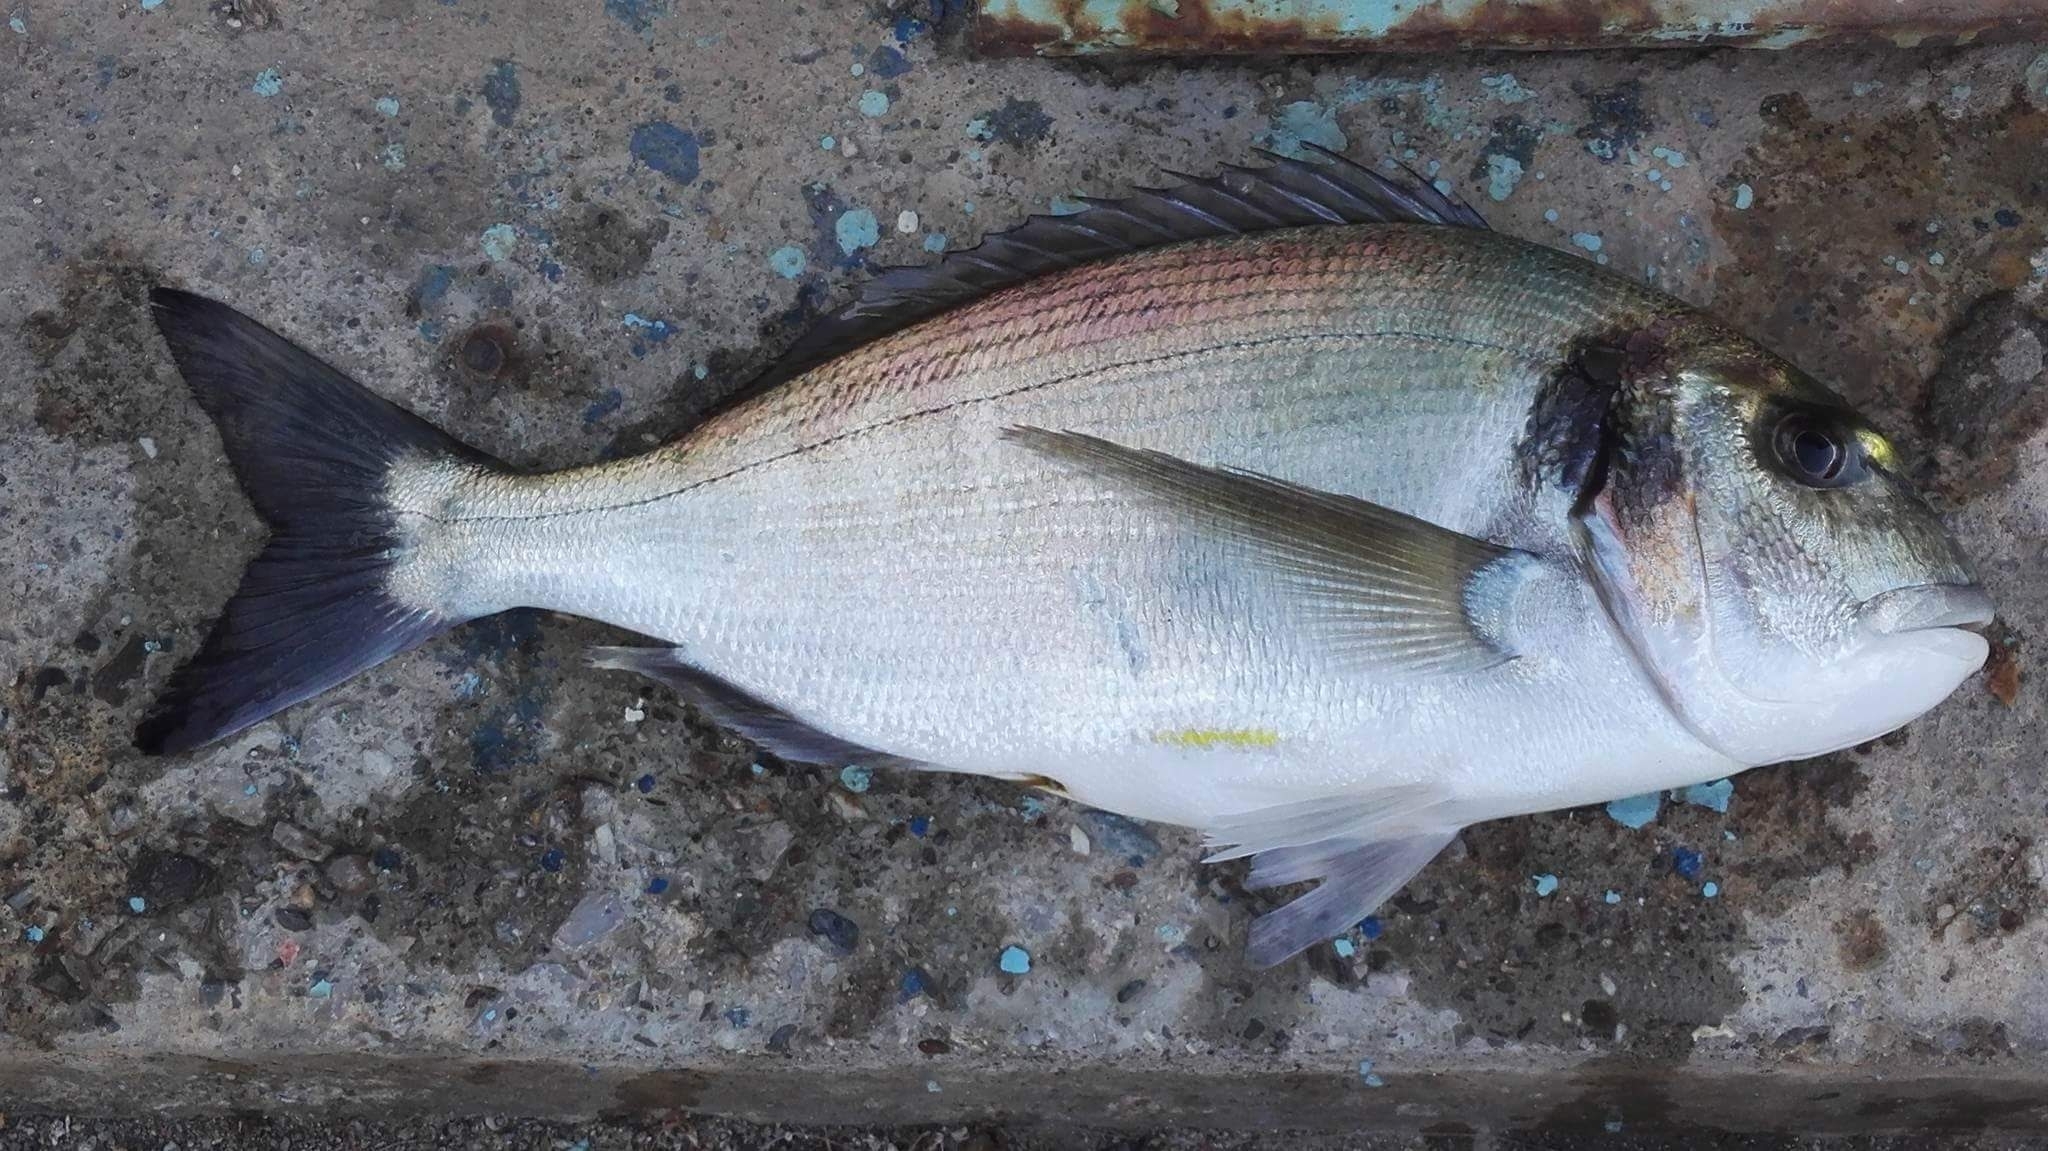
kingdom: Animalia
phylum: Chordata
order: Perciformes
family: Sparidae
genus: Sparus
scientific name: Sparus aurata
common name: Gilthead
